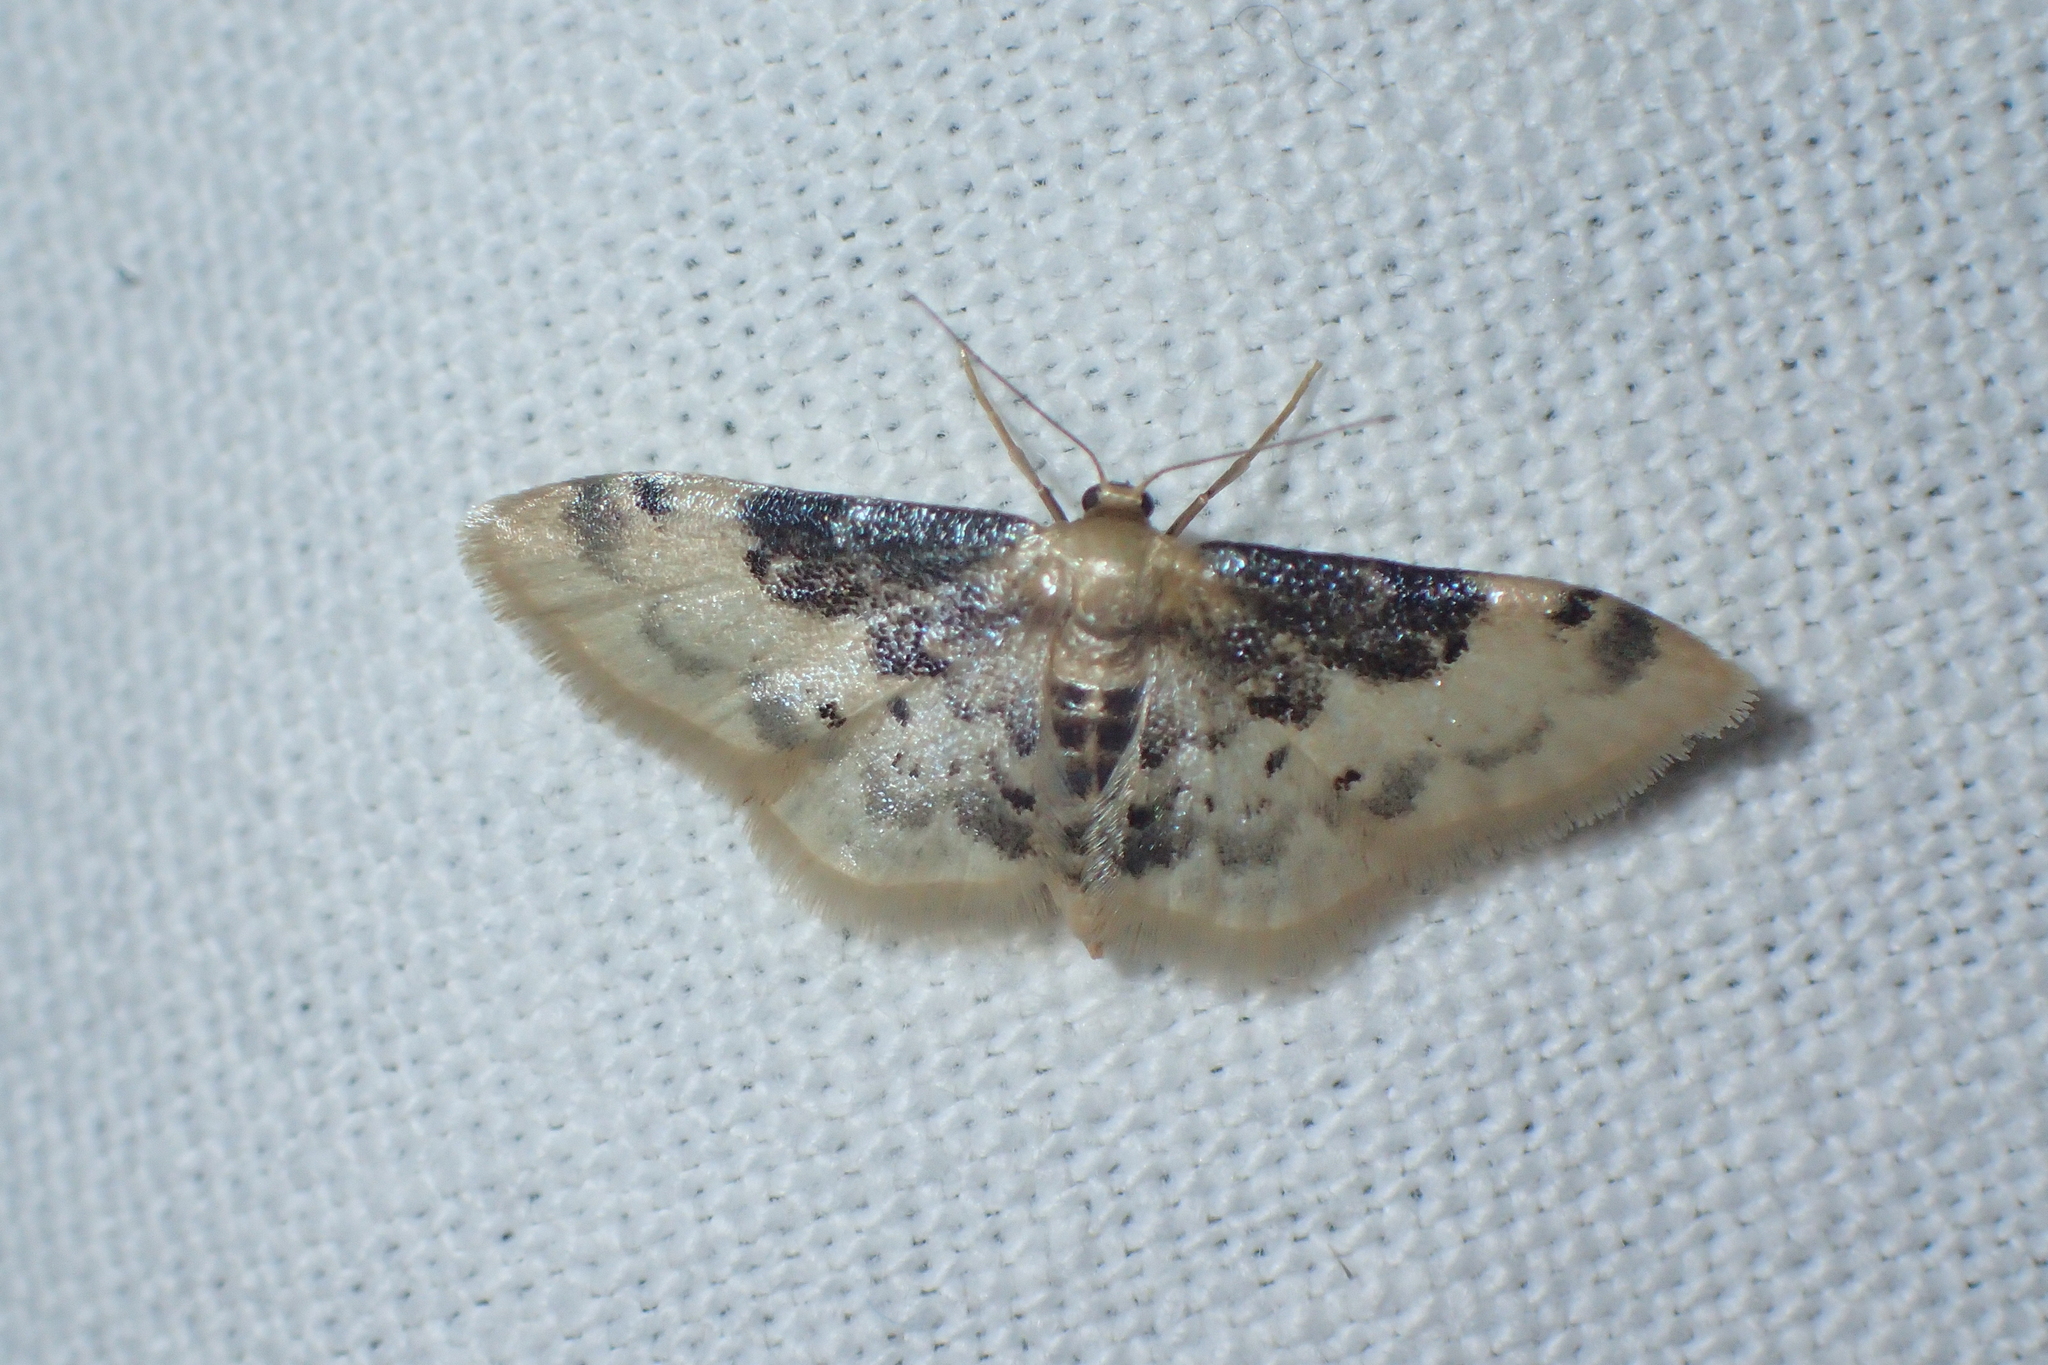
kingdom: Animalia
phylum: Arthropoda
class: Insecta
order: Lepidoptera
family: Geometridae
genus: Idaea
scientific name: Idaea filicata
